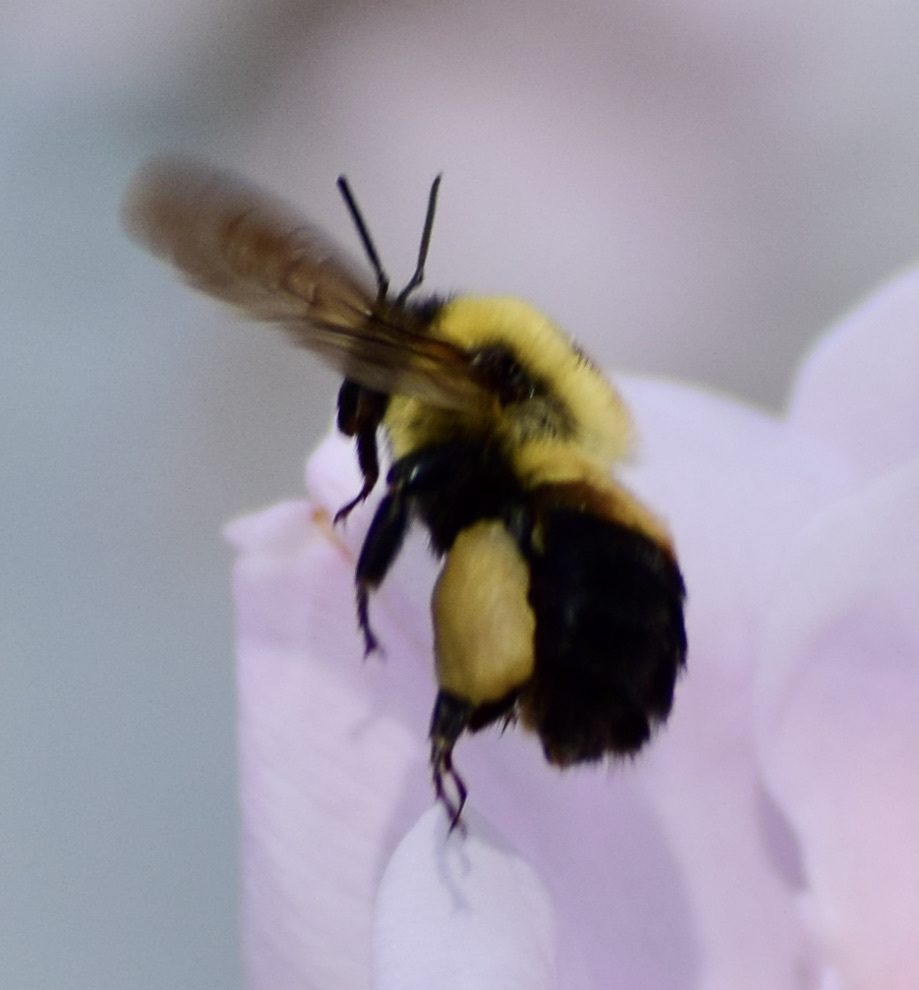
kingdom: Animalia
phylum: Arthropoda
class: Insecta
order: Hymenoptera
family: Apidae
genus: Bombus
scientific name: Bombus griseocollis
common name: Brown-belted bumble bee
